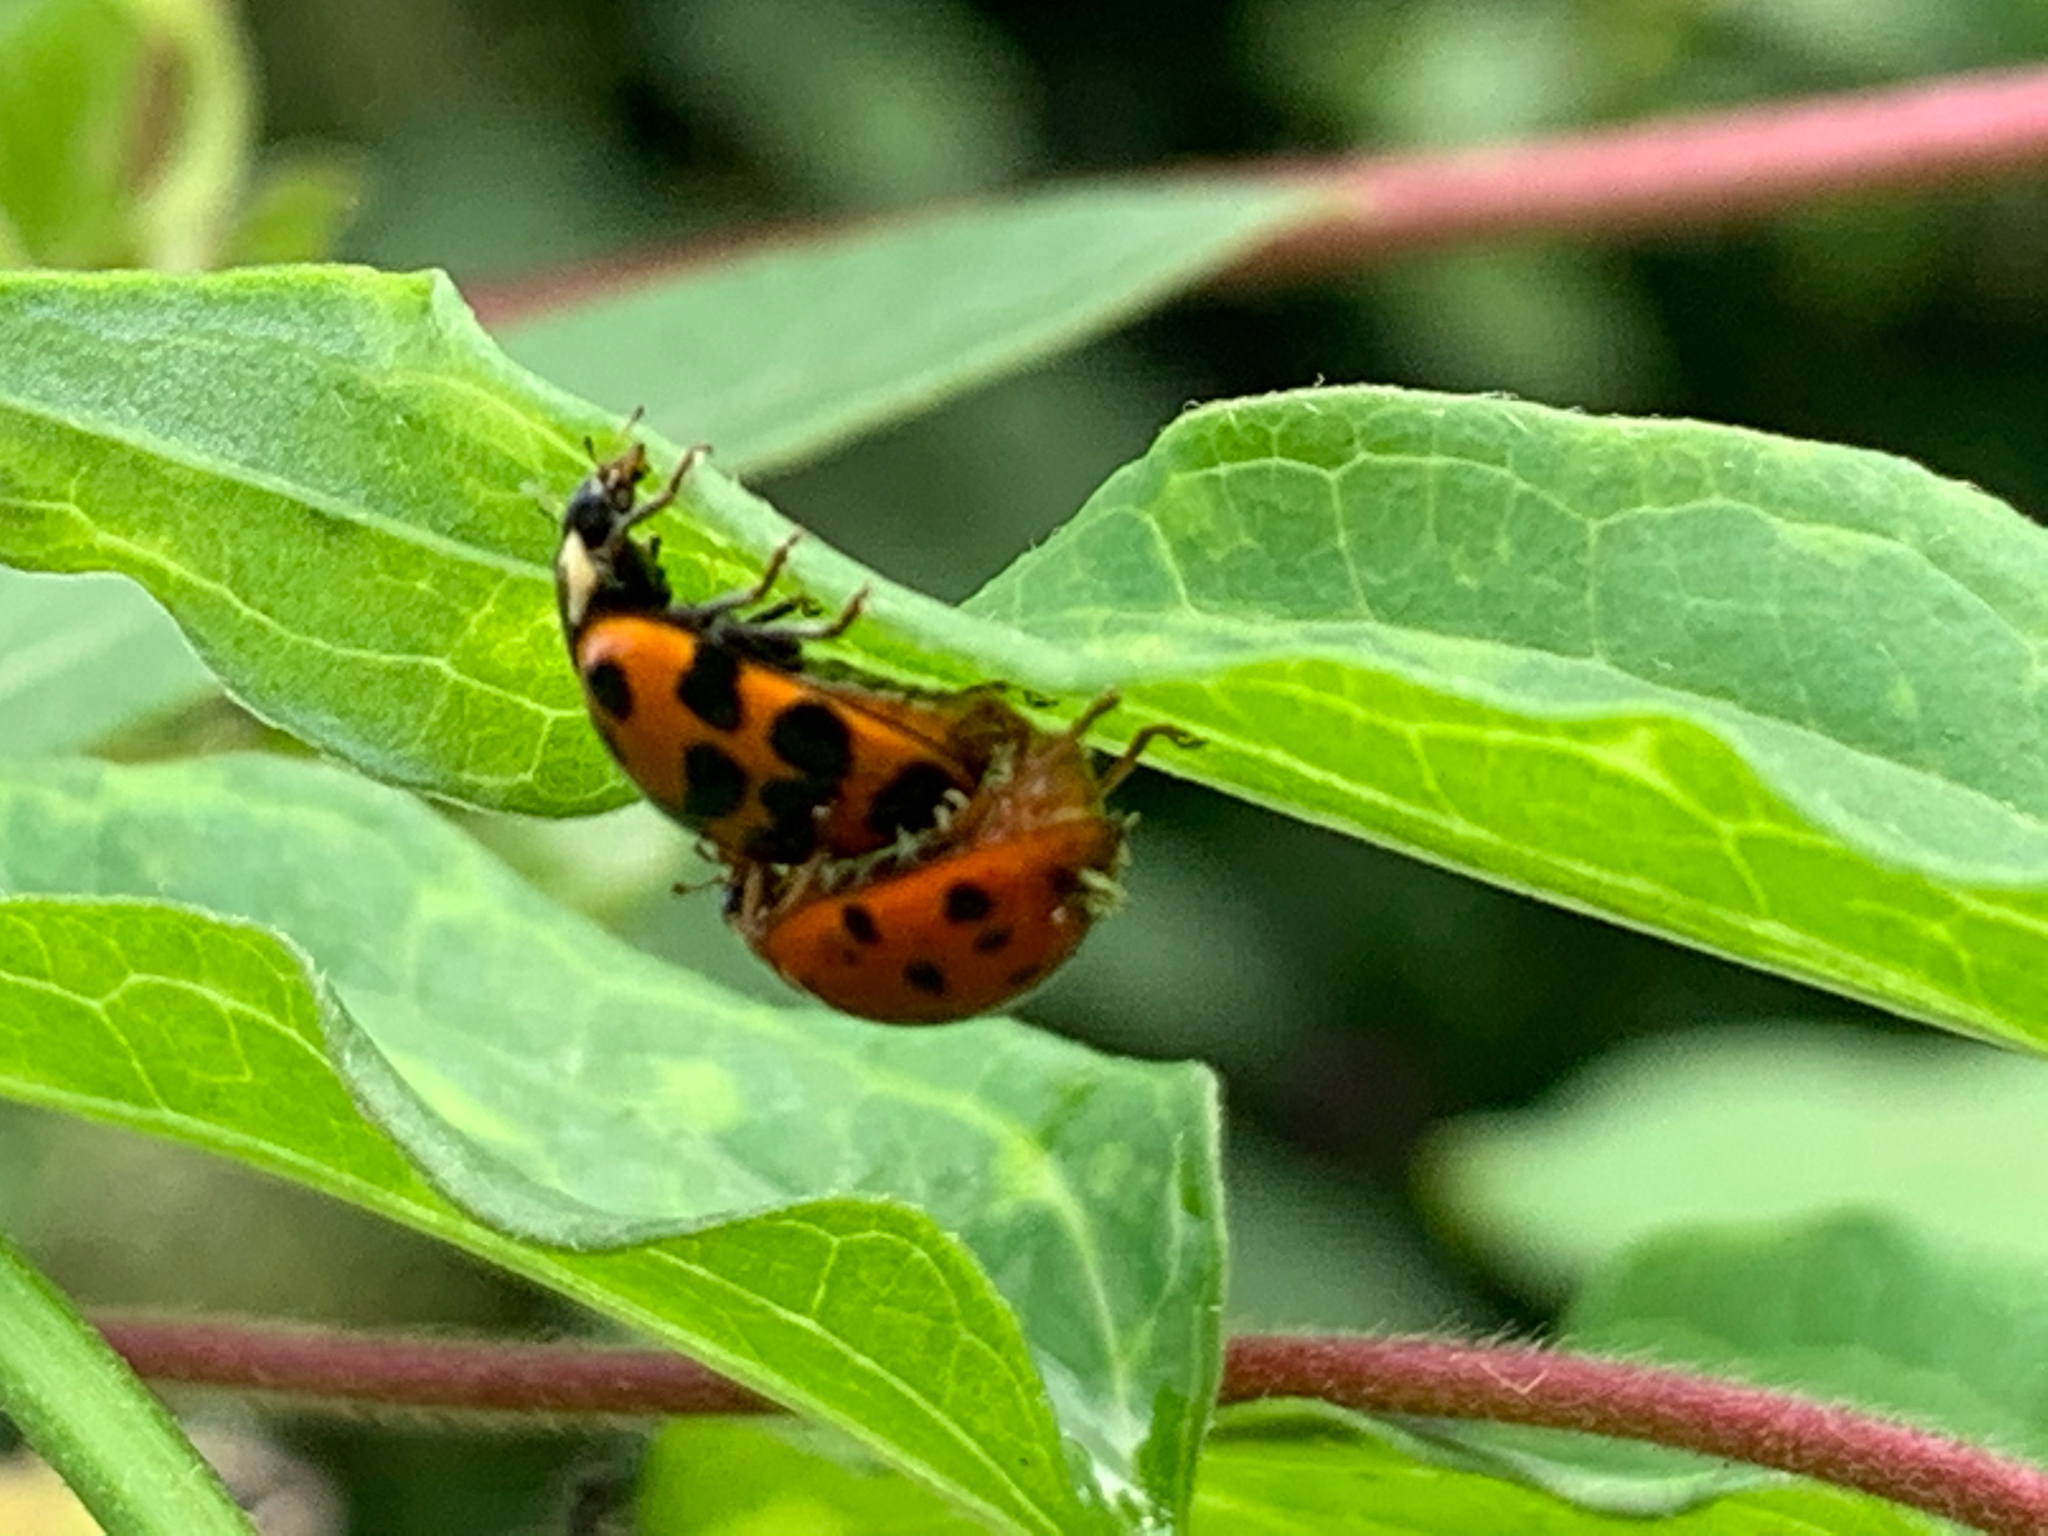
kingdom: Animalia
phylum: Arthropoda
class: Insecta
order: Coleoptera
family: Coccinellidae
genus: Harmonia
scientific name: Harmonia axyridis
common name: Harlequin ladybird
